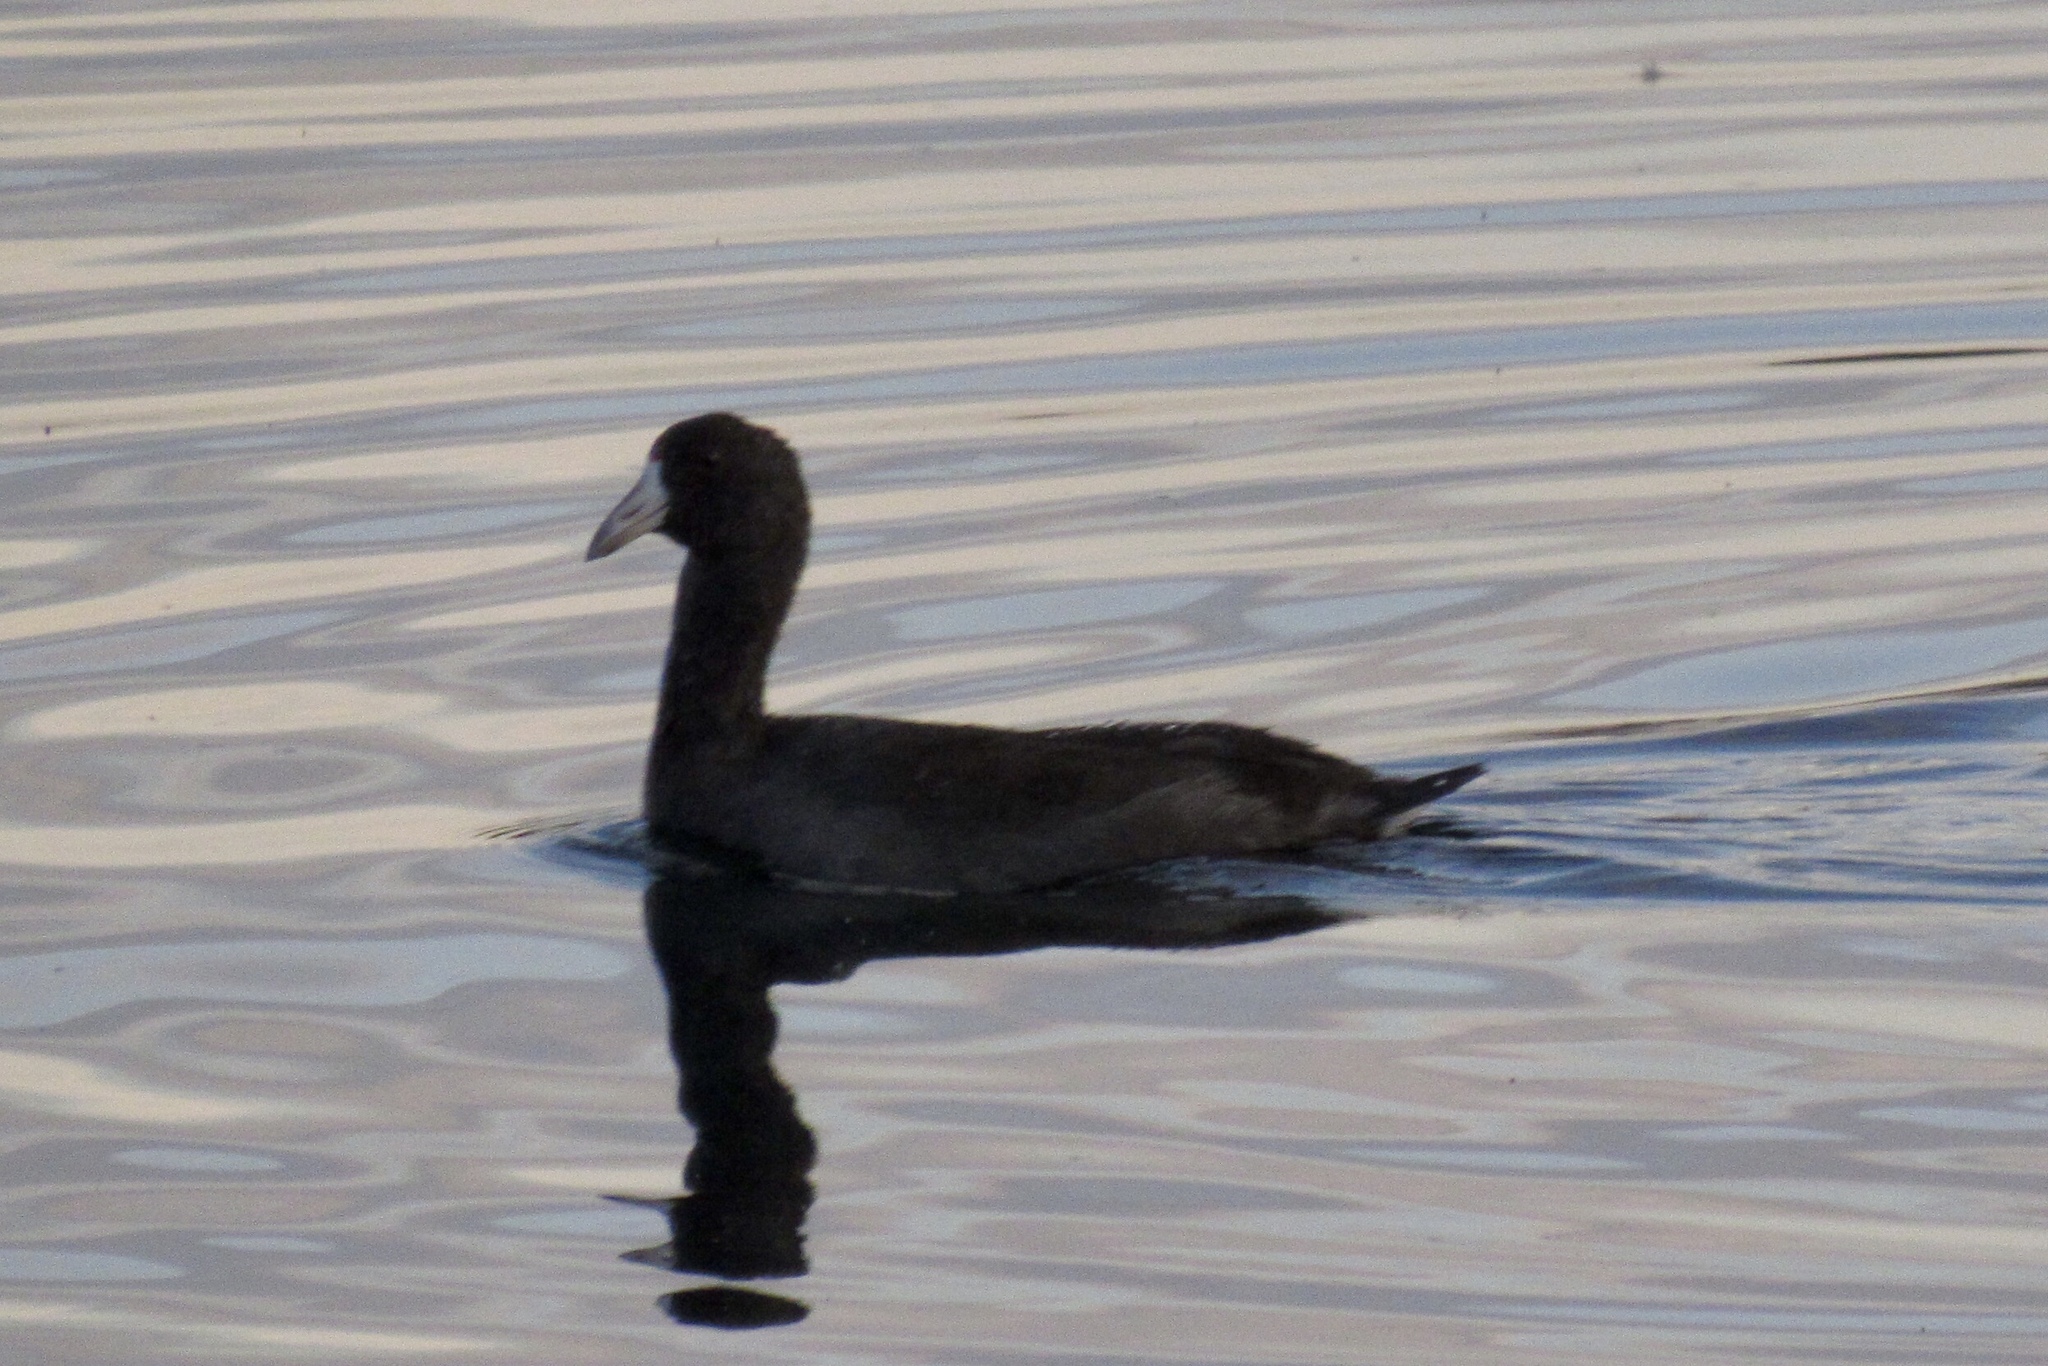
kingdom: Animalia
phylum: Chordata
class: Aves
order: Gruiformes
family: Rallidae
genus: Fulica
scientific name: Fulica americana
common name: American coot
